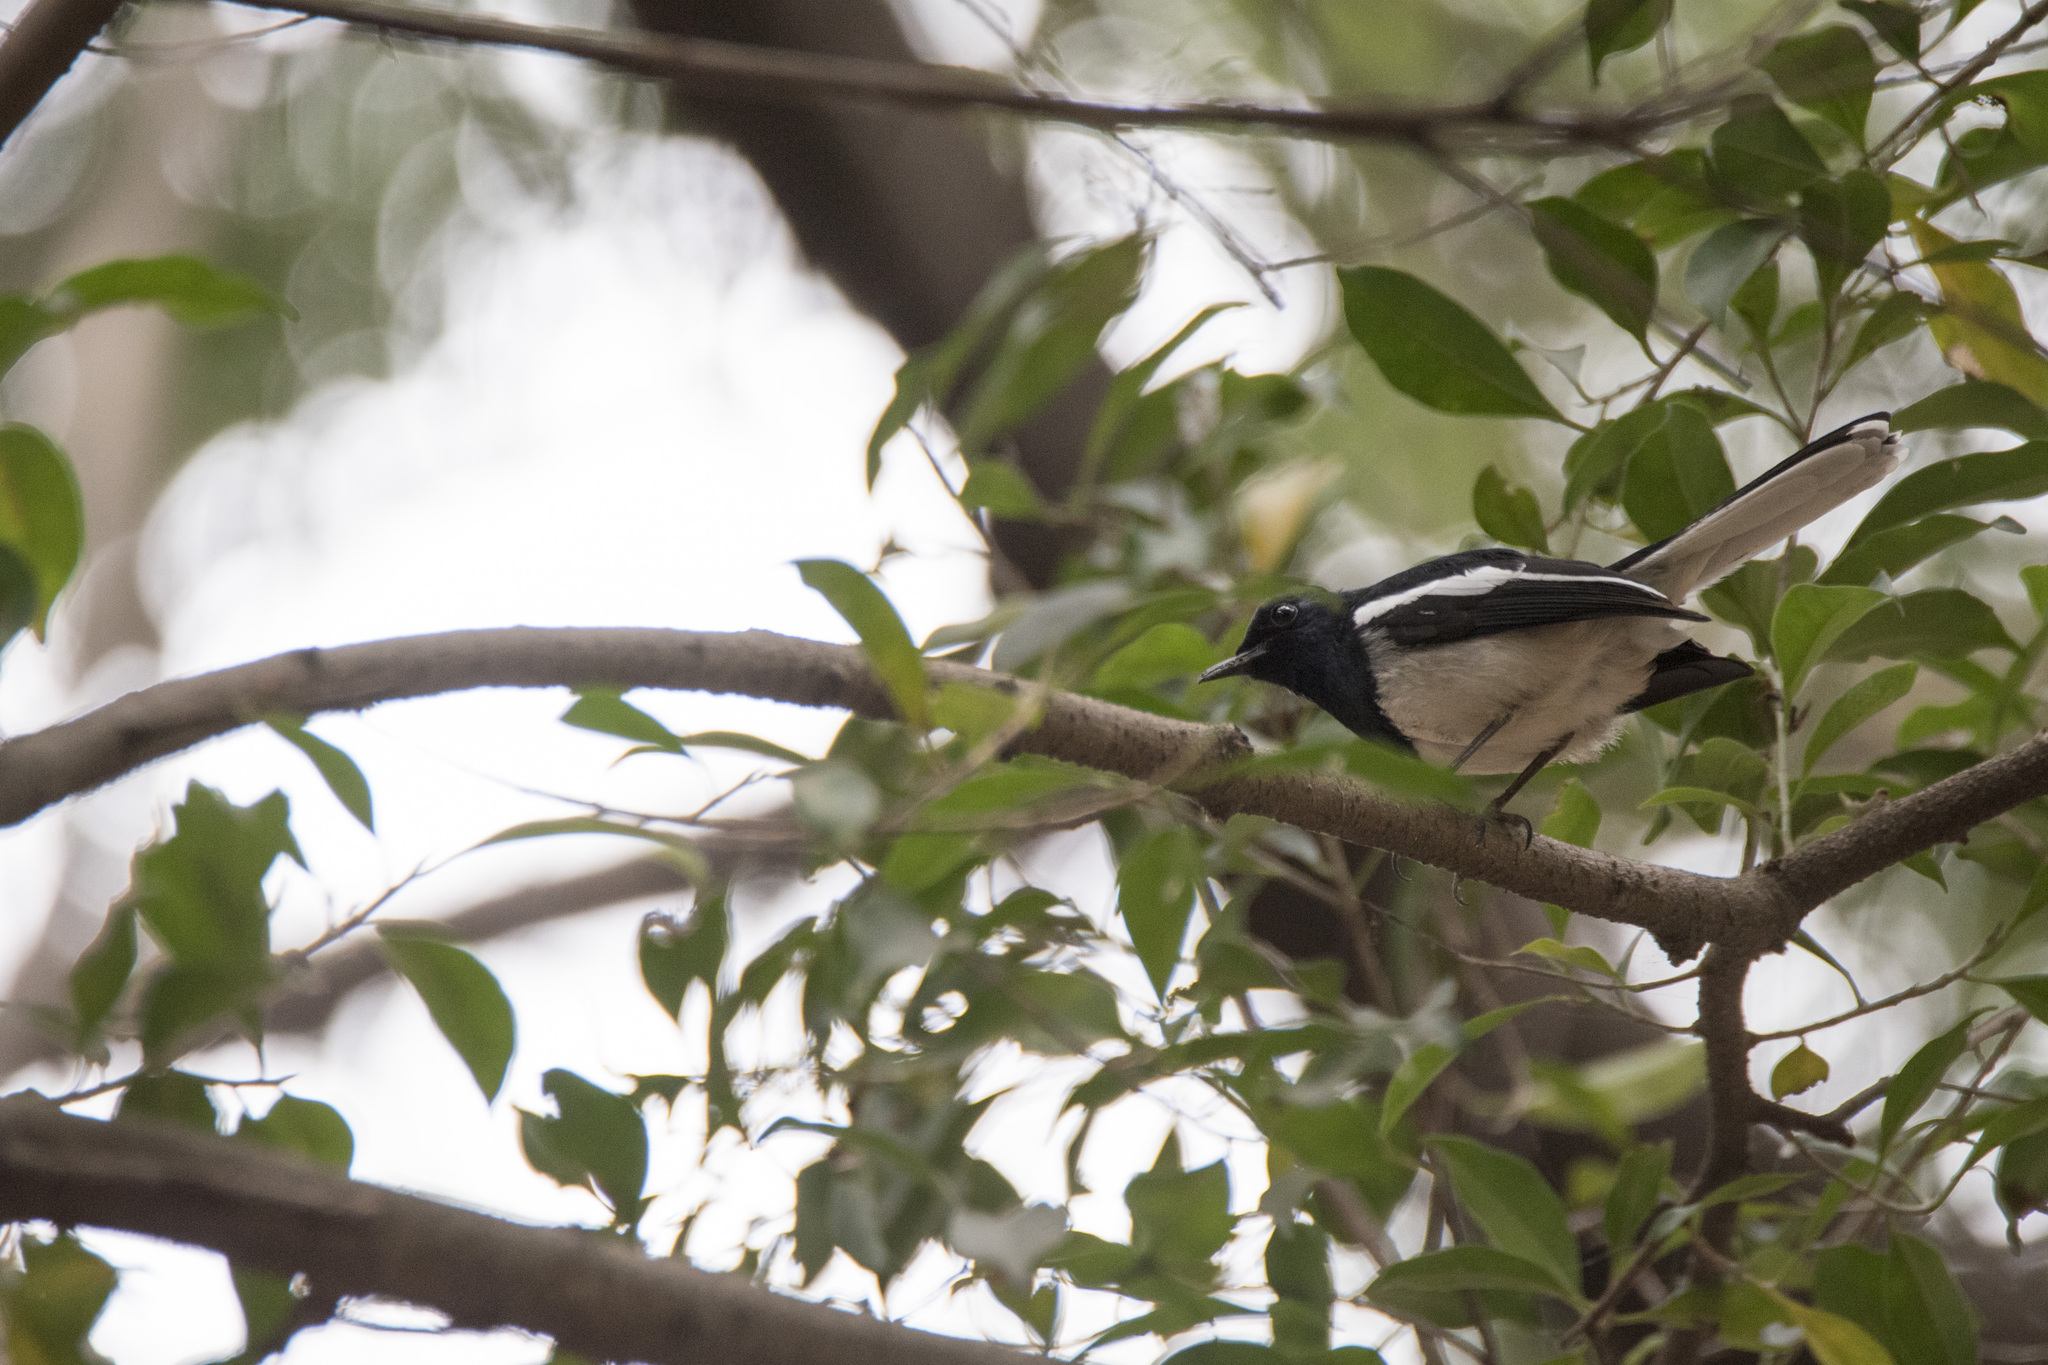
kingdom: Animalia
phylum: Chordata
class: Aves
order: Passeriformes
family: Muscicapidae
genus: Copsychus
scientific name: Copsychus saularis
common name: Oriental magpie-robin
